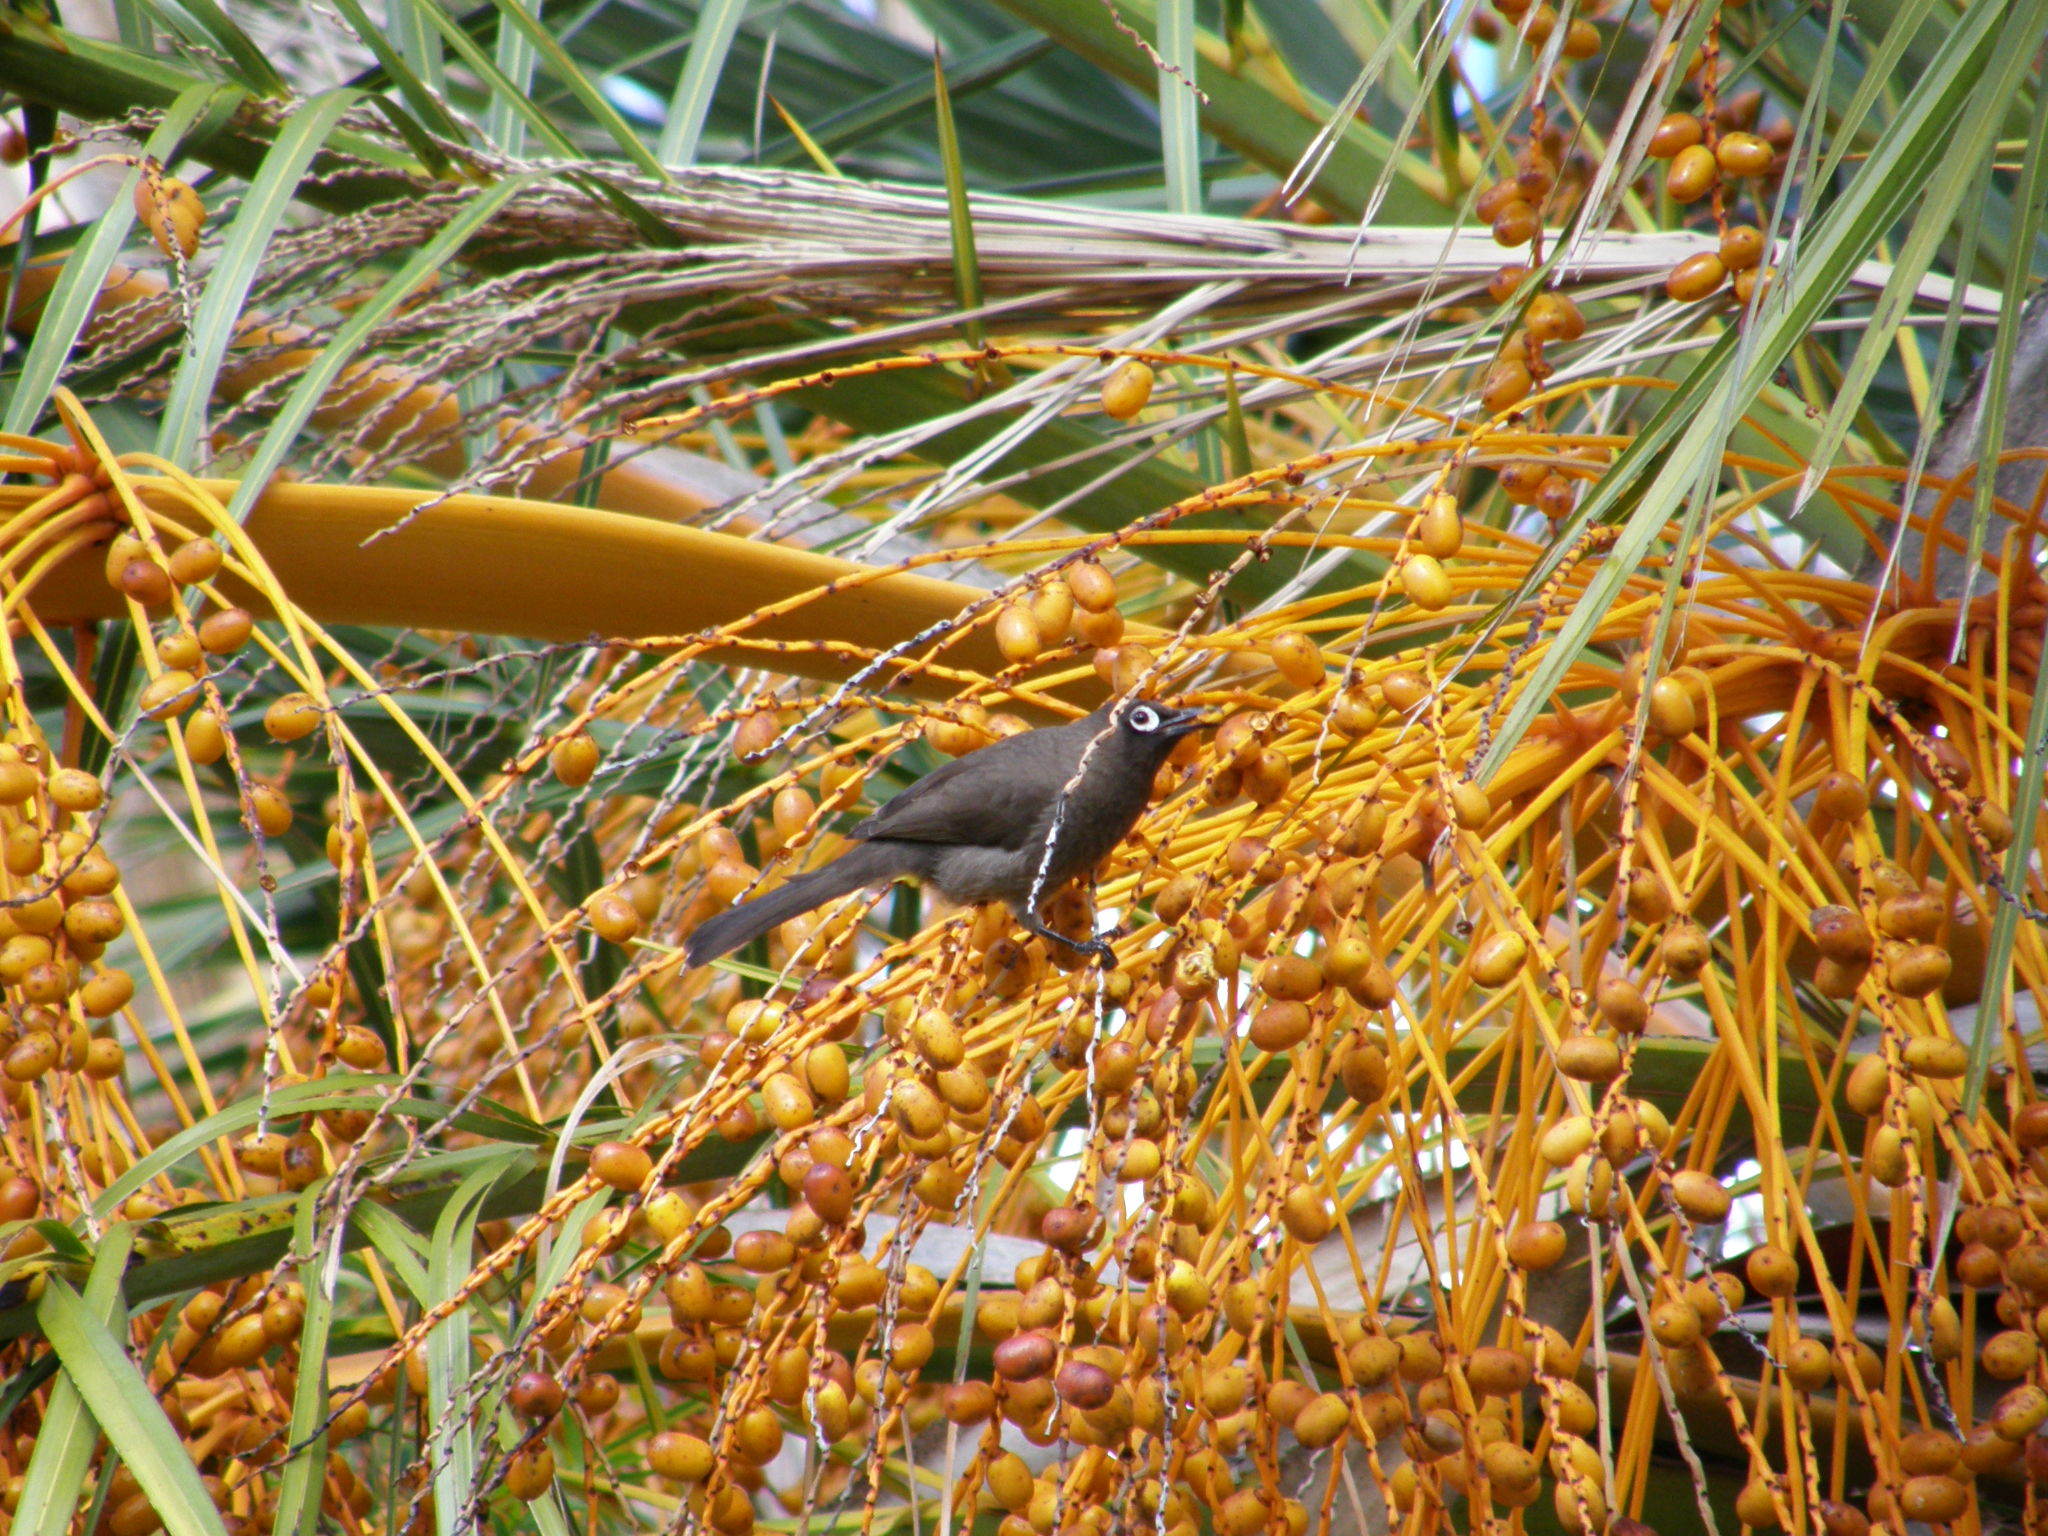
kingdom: Animalia
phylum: Chordata
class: Aves
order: Passeriformes
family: Pycnonotidae
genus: Pycnonotus
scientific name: Pycnonotus capensis
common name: Cape bulbul
